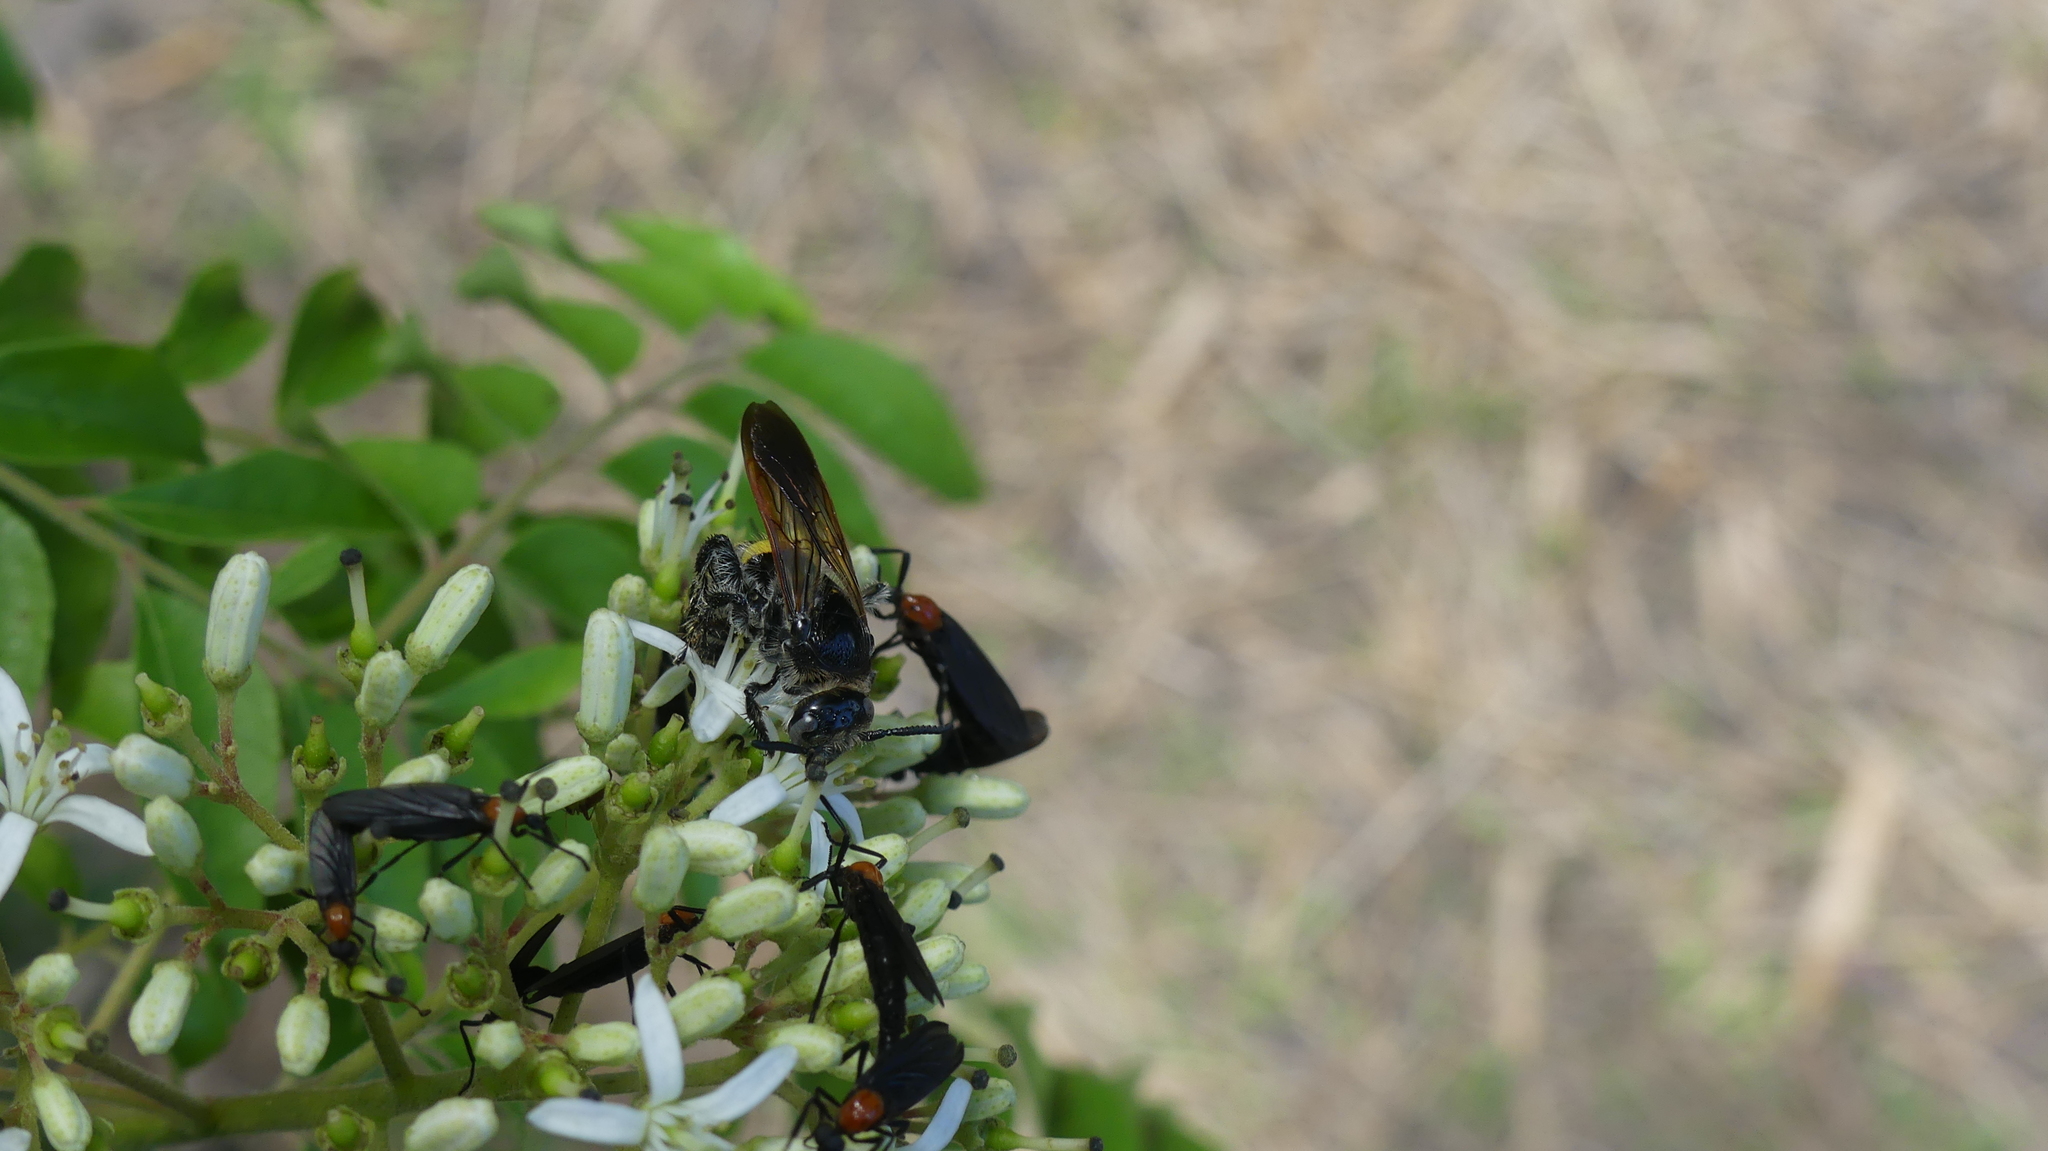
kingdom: Animalia
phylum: Arthropoda
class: Insecta
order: Hymenoptera
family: Scoliidae
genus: Dielis
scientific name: Dielis
